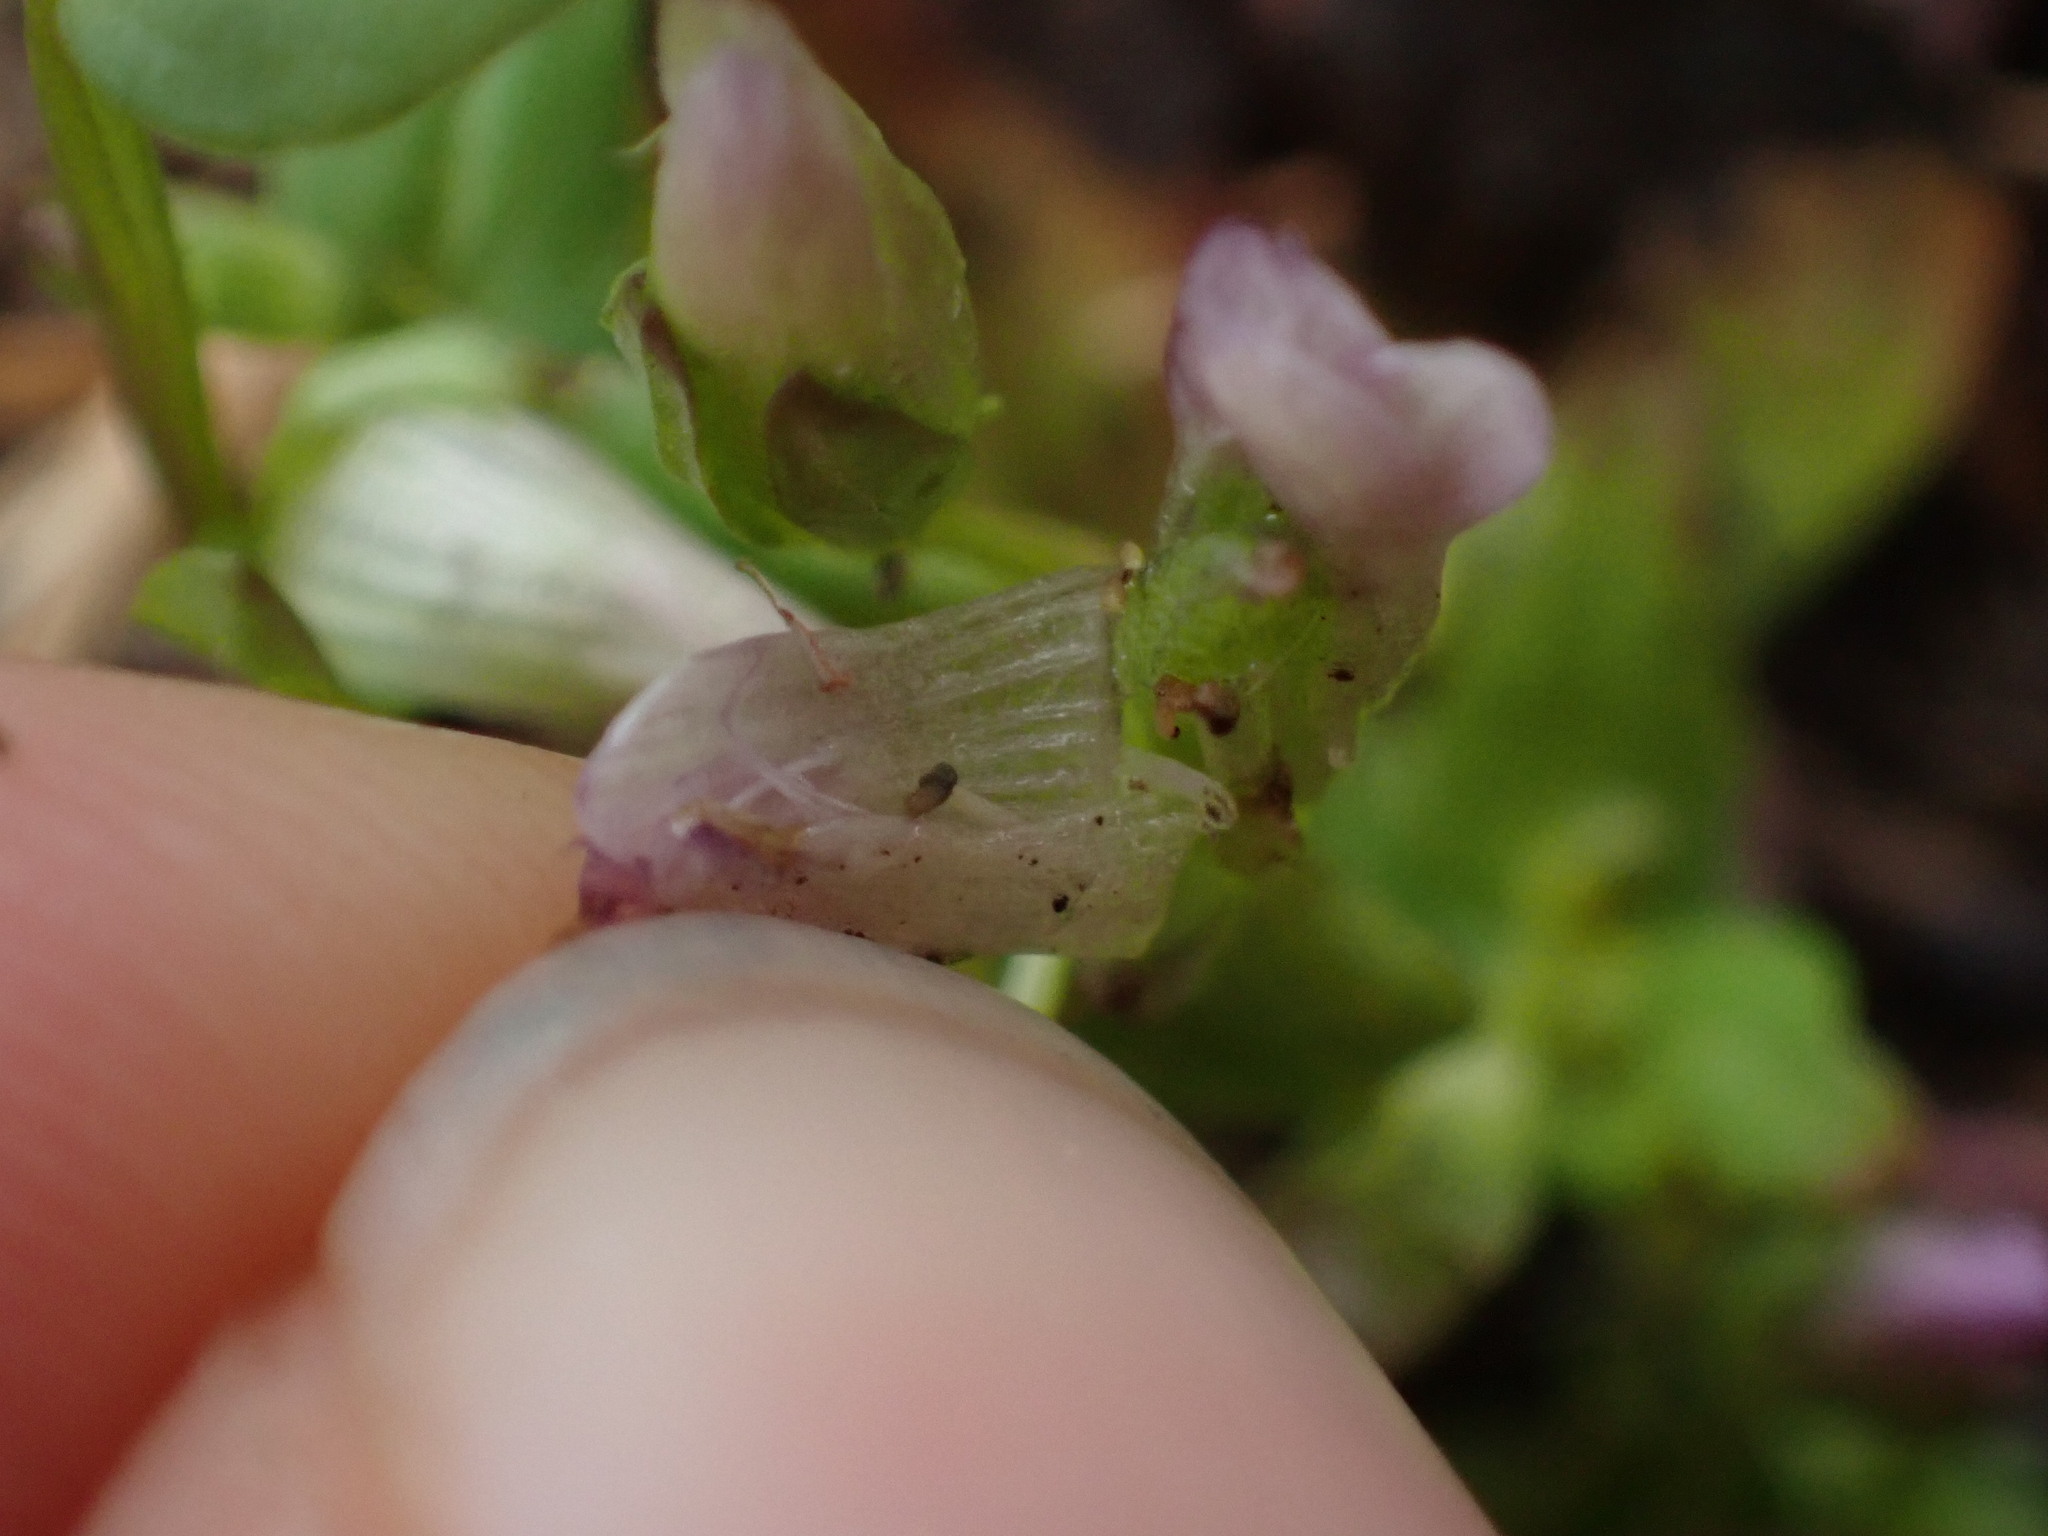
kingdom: Plantae
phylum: Tracheophyta
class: Magnoliopsida
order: Gentianales
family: Gentianaceae
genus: Gentianella
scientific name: Gentianella amarella
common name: Autumn gentian
